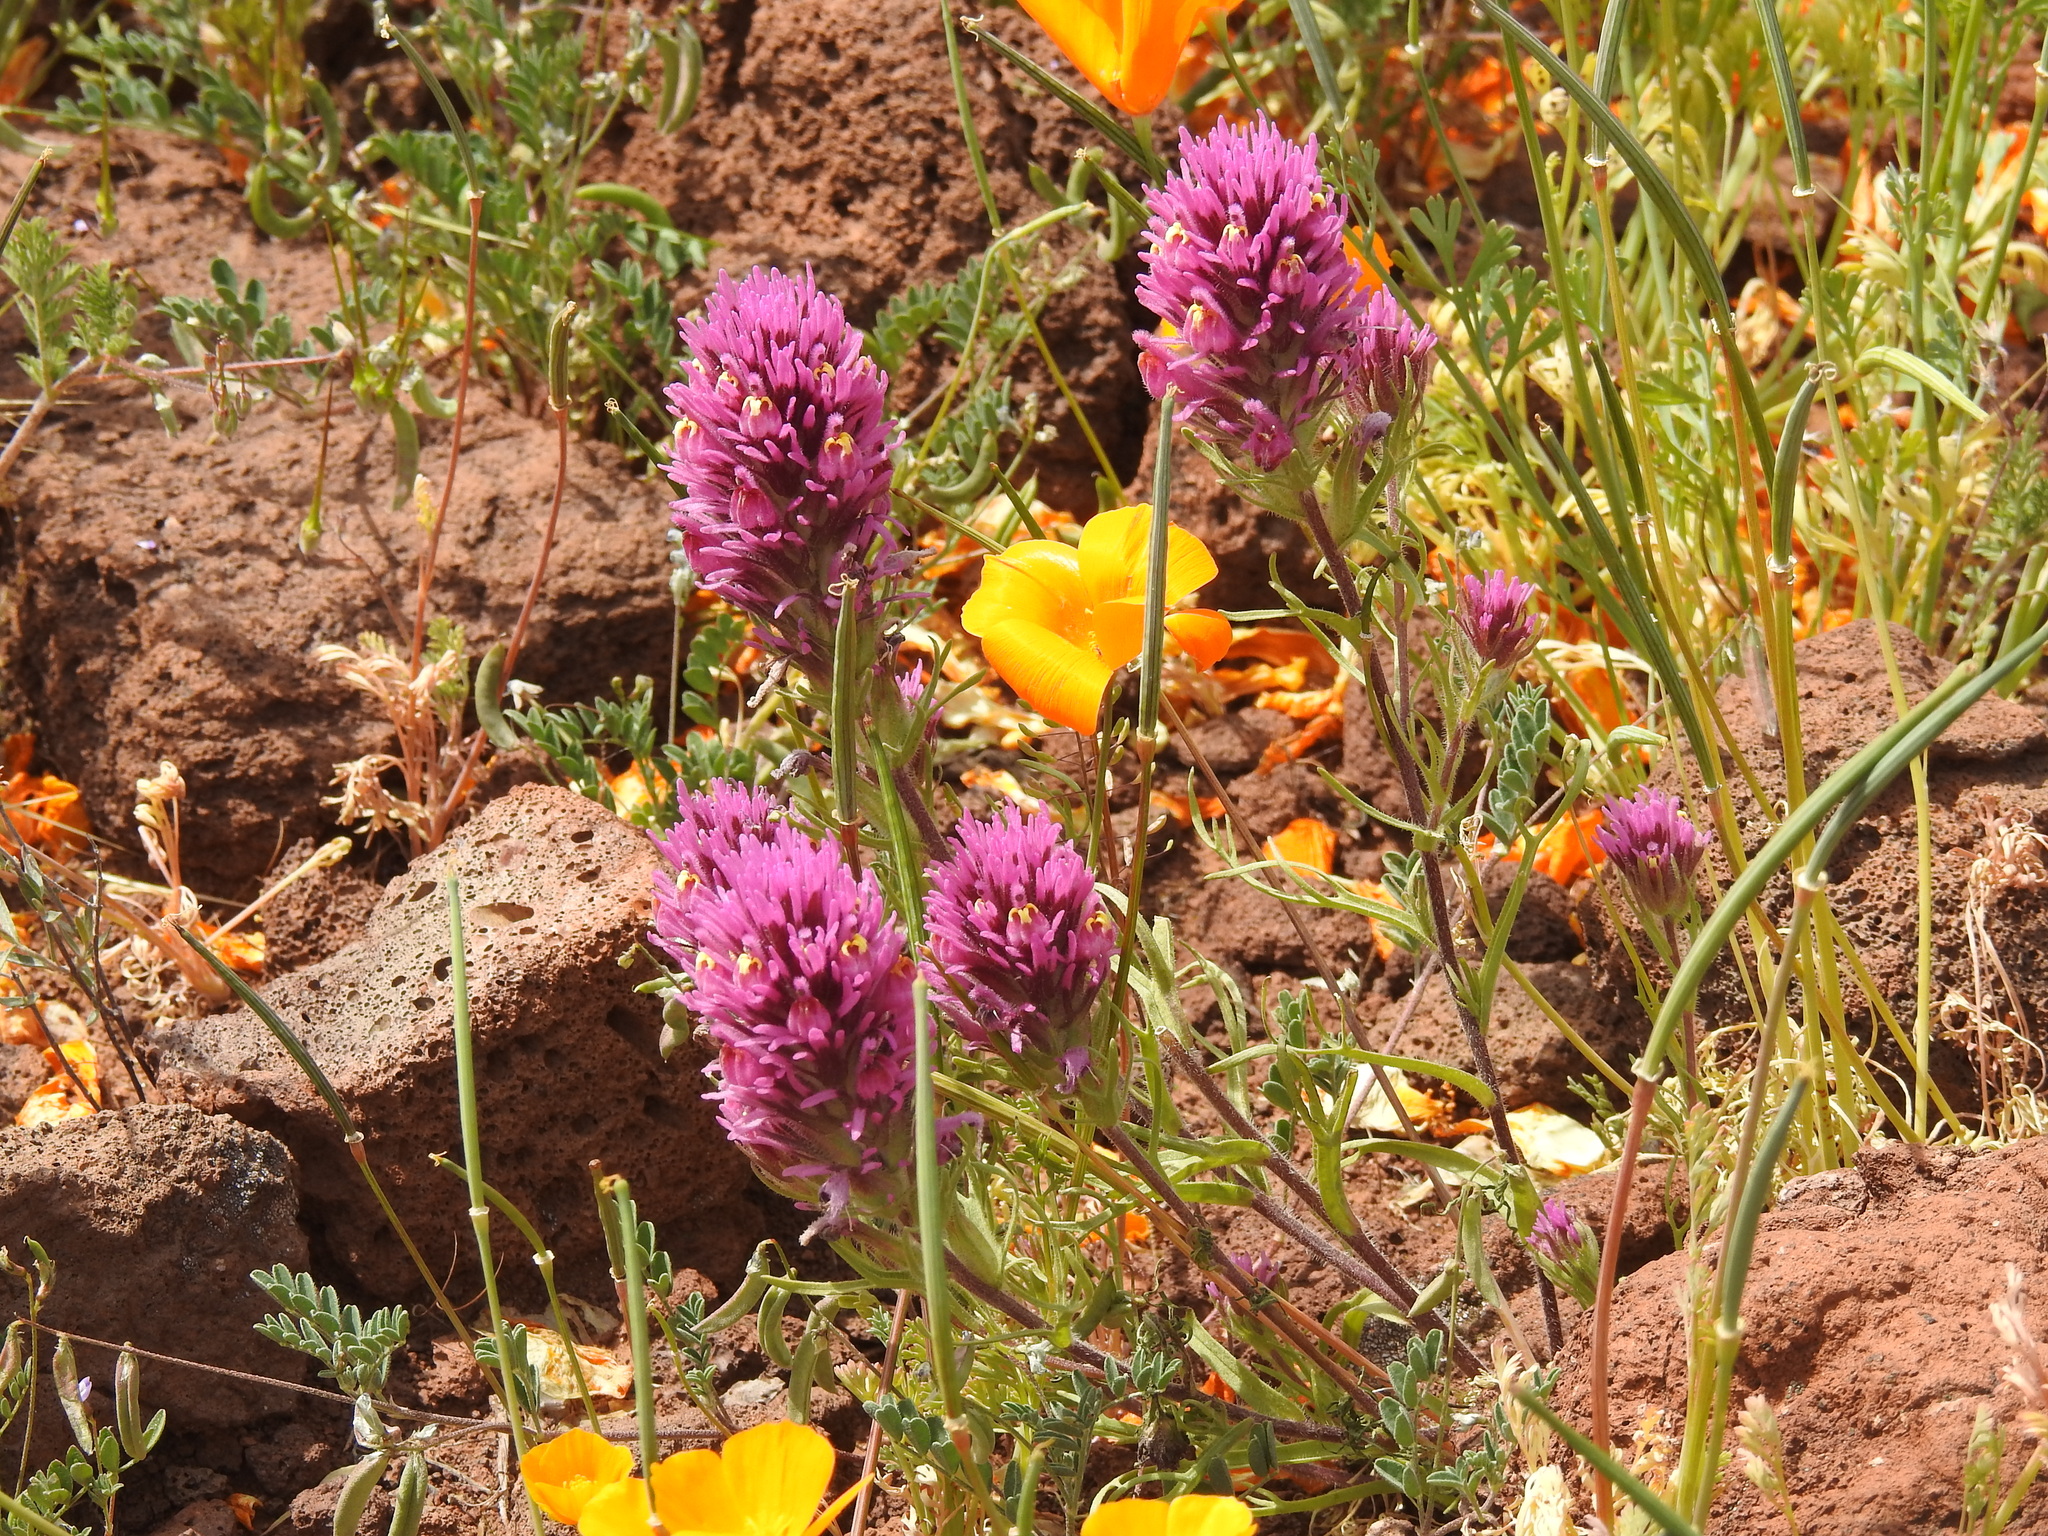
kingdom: Plantae
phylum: Tracheophyta
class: Magnoliopsida
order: Lamiales
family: Orobanchaceae
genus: Castilleja
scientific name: Castilleja exserta
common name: Purple owl-clover
